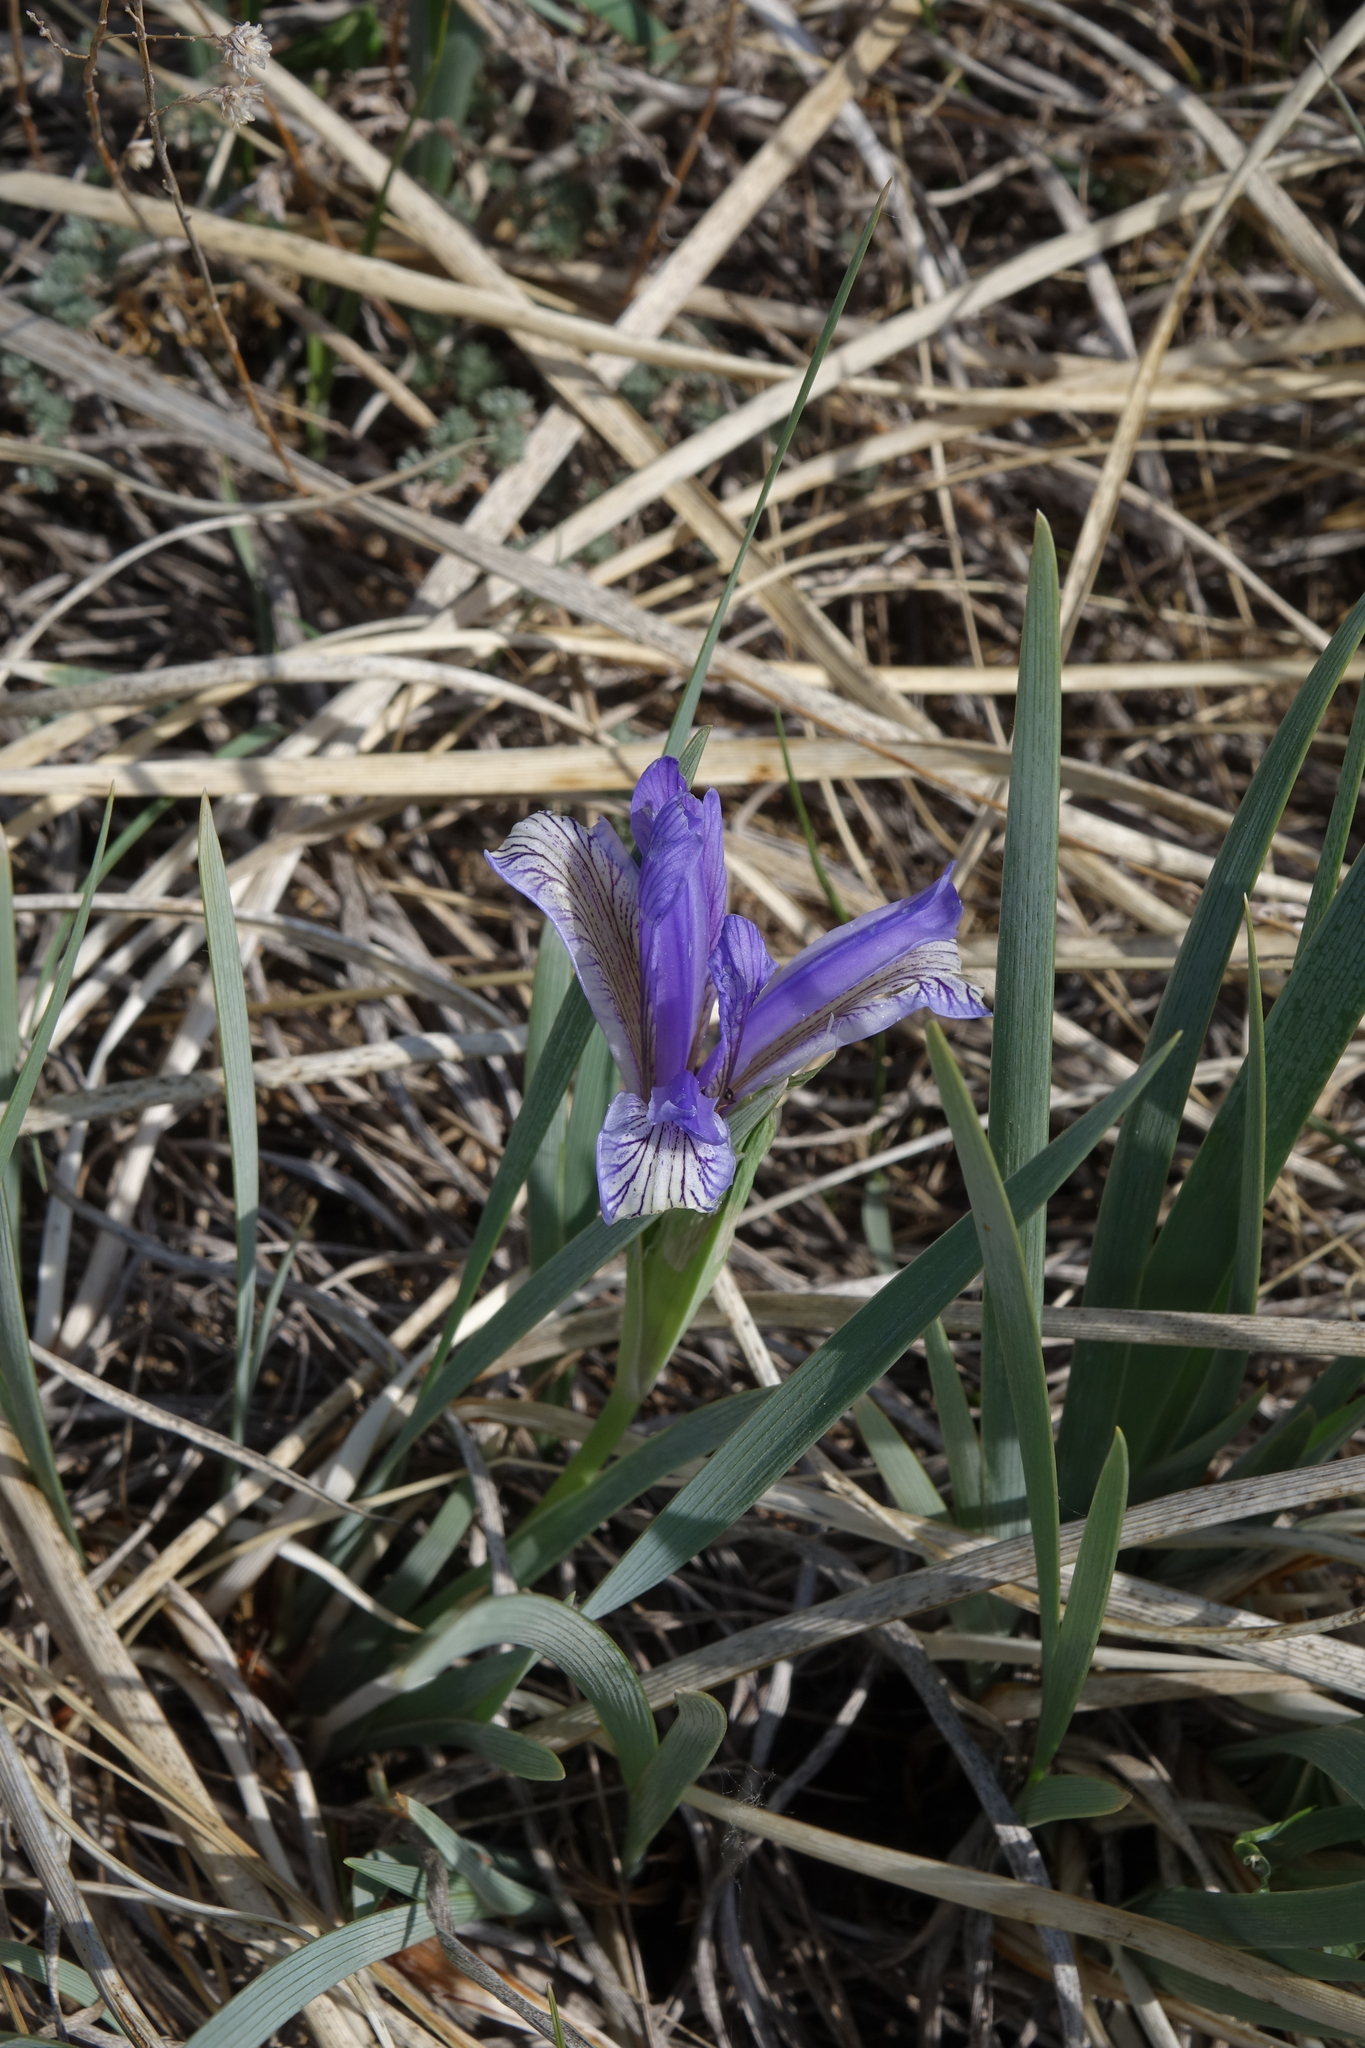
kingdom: Plantae
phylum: Tracheophyta
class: Liliopsida
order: Asparagales
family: Iridaceae
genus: Iris
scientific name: Iris lactea
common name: White-flower chinese iris
